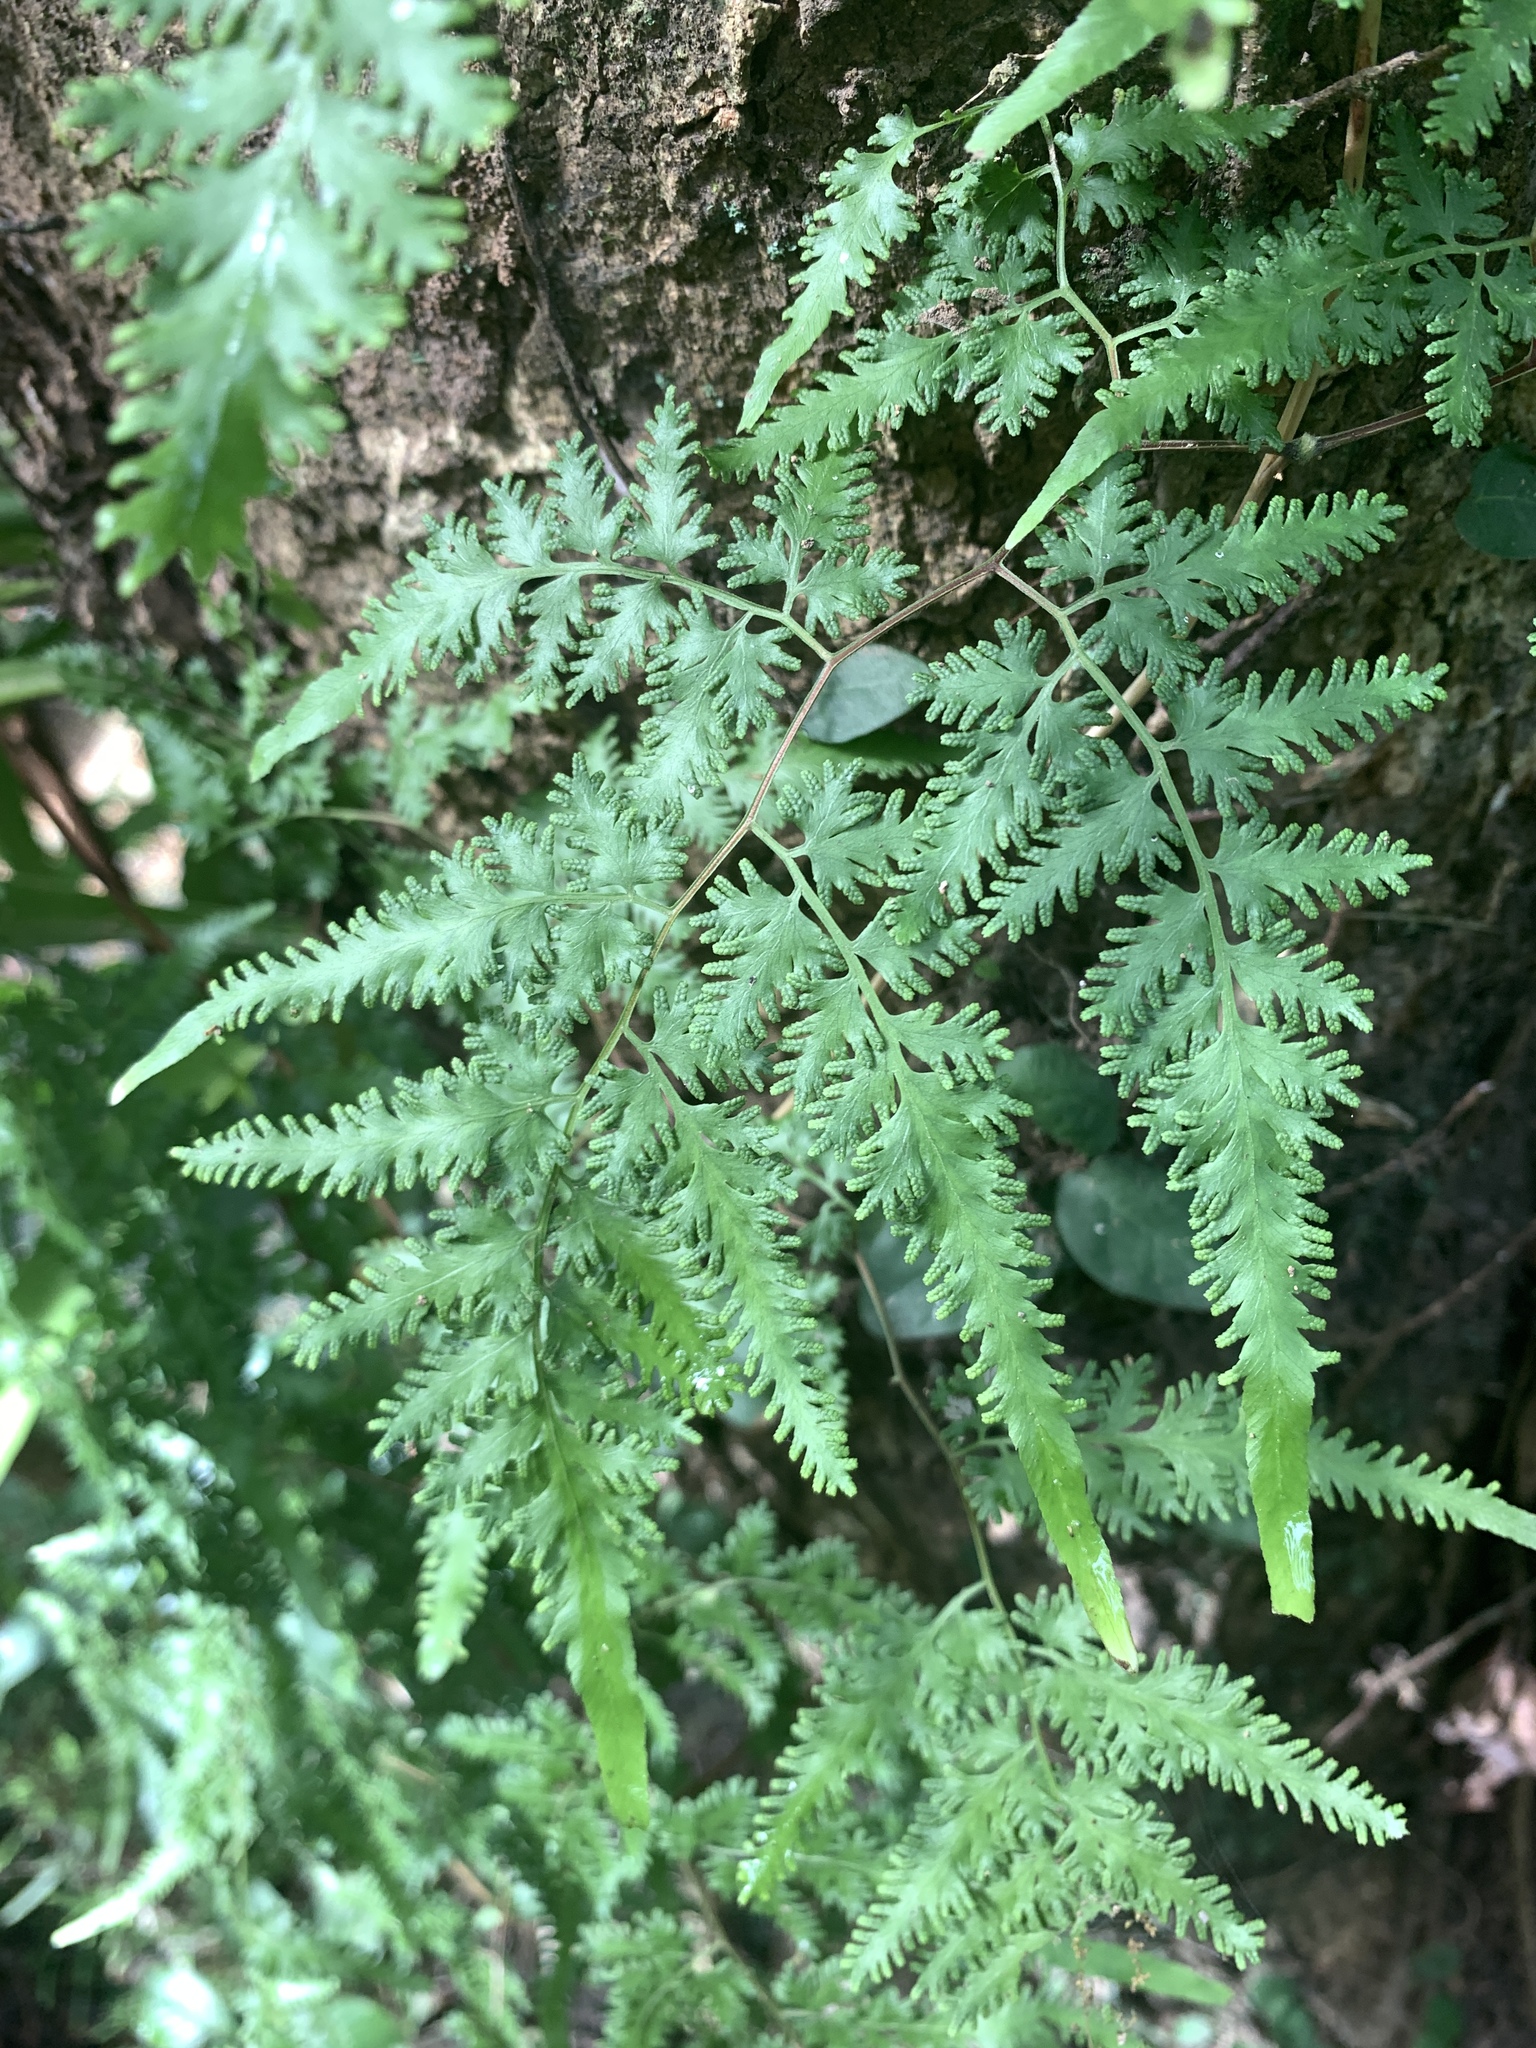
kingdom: Plantae
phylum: Tracheophyta
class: Polypodiopsida
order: Schizaeales
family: Lygodiaceae
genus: Lygodium
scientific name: Lygodium japonicum
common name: Japanese climbing fern
